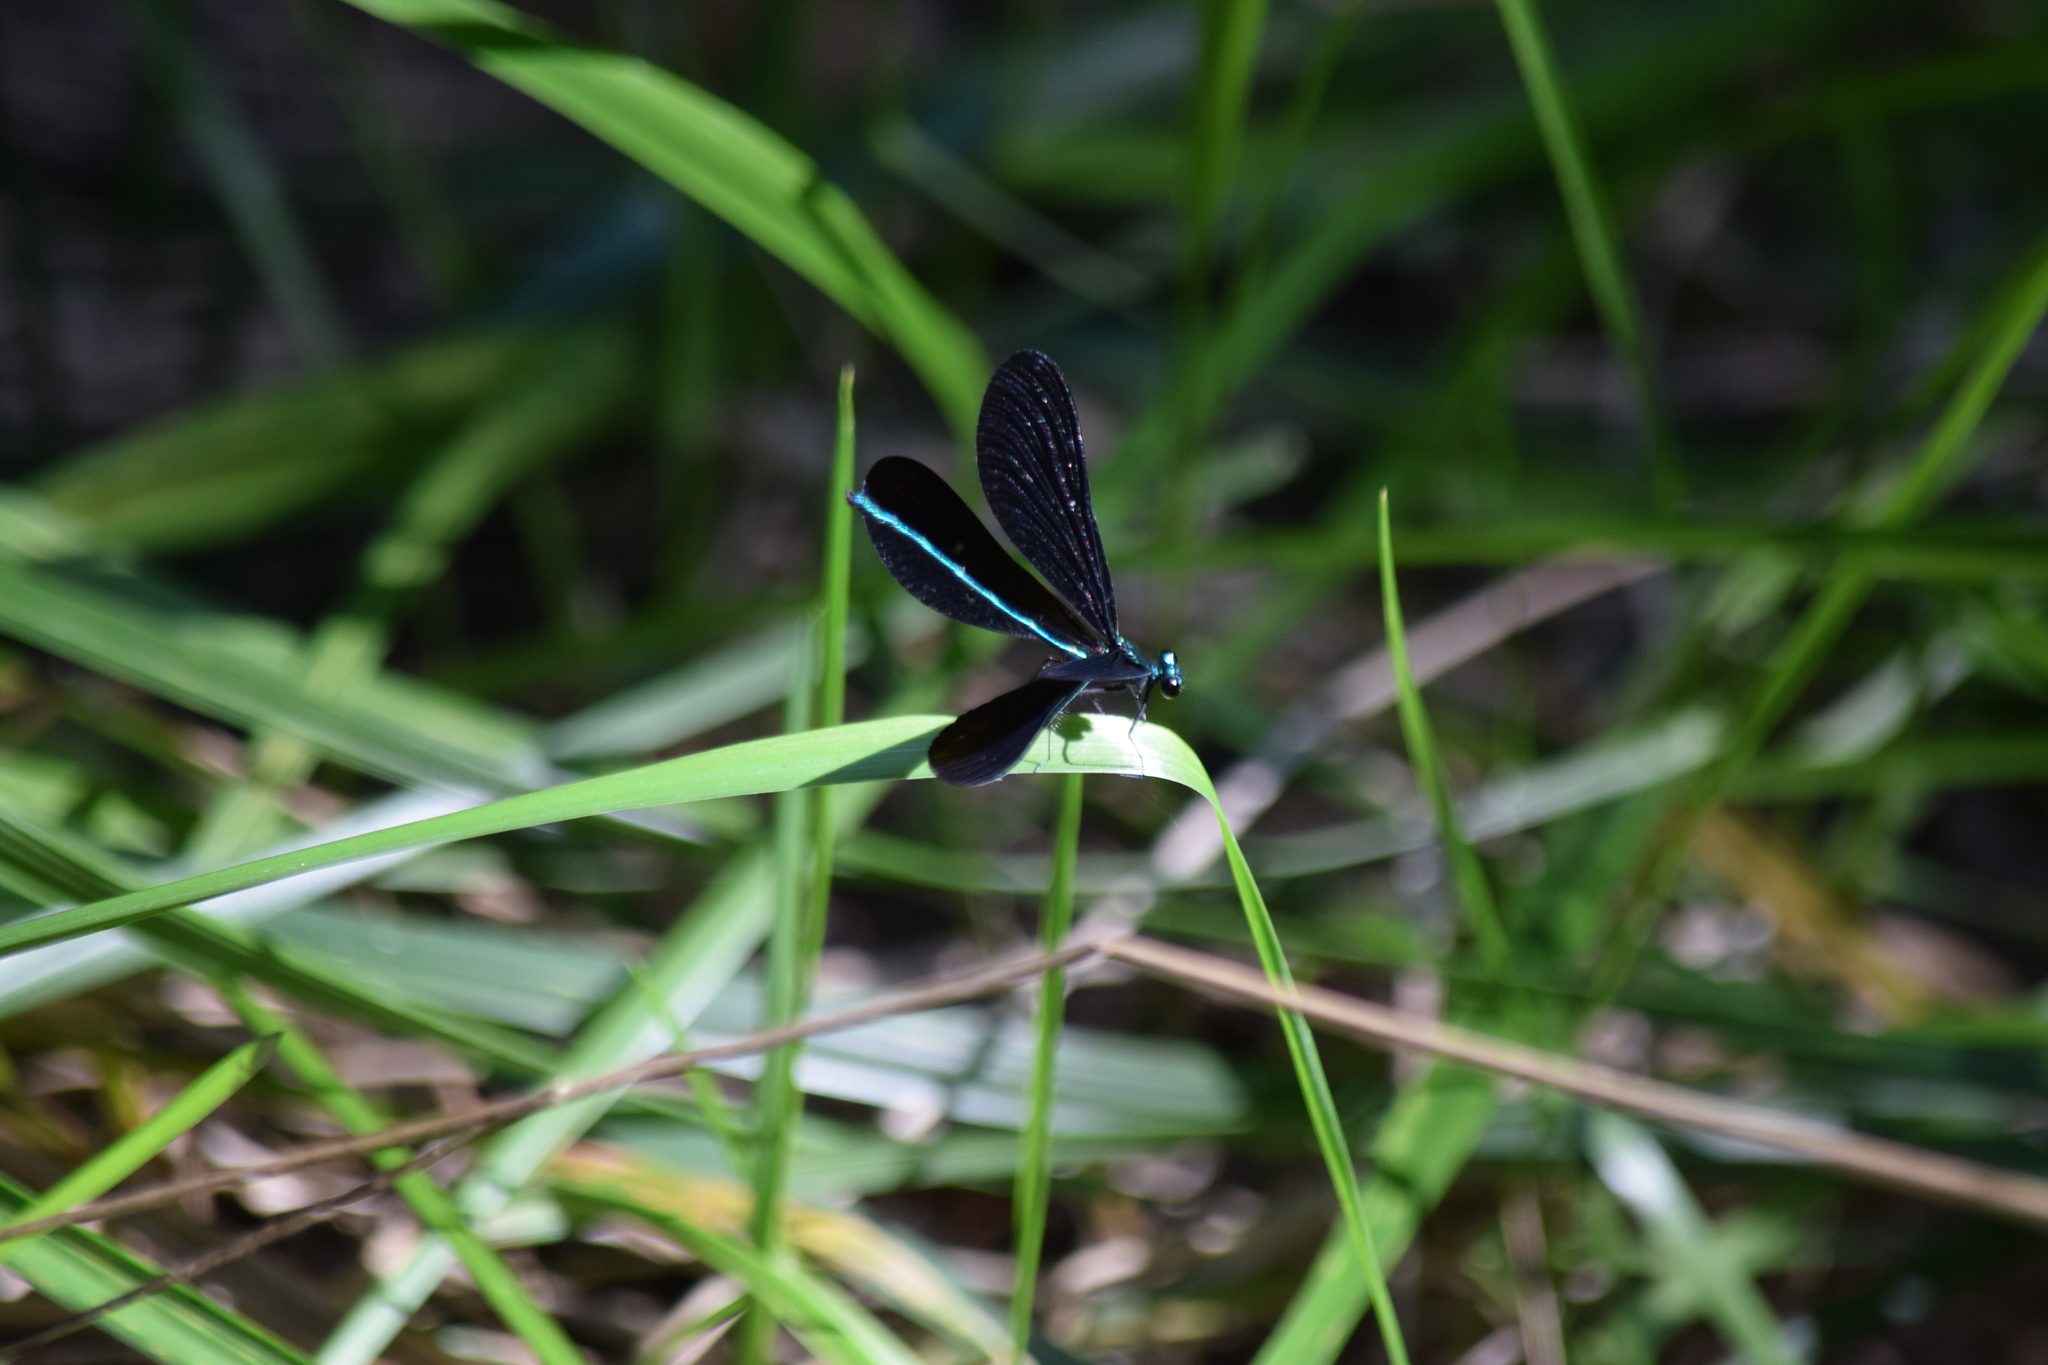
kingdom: Animalia
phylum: Arthropoda
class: Insecta
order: Odonata
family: Calopterygidae
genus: Calopteryx
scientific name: Calopteryx maculata
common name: Ebony jewelwing
